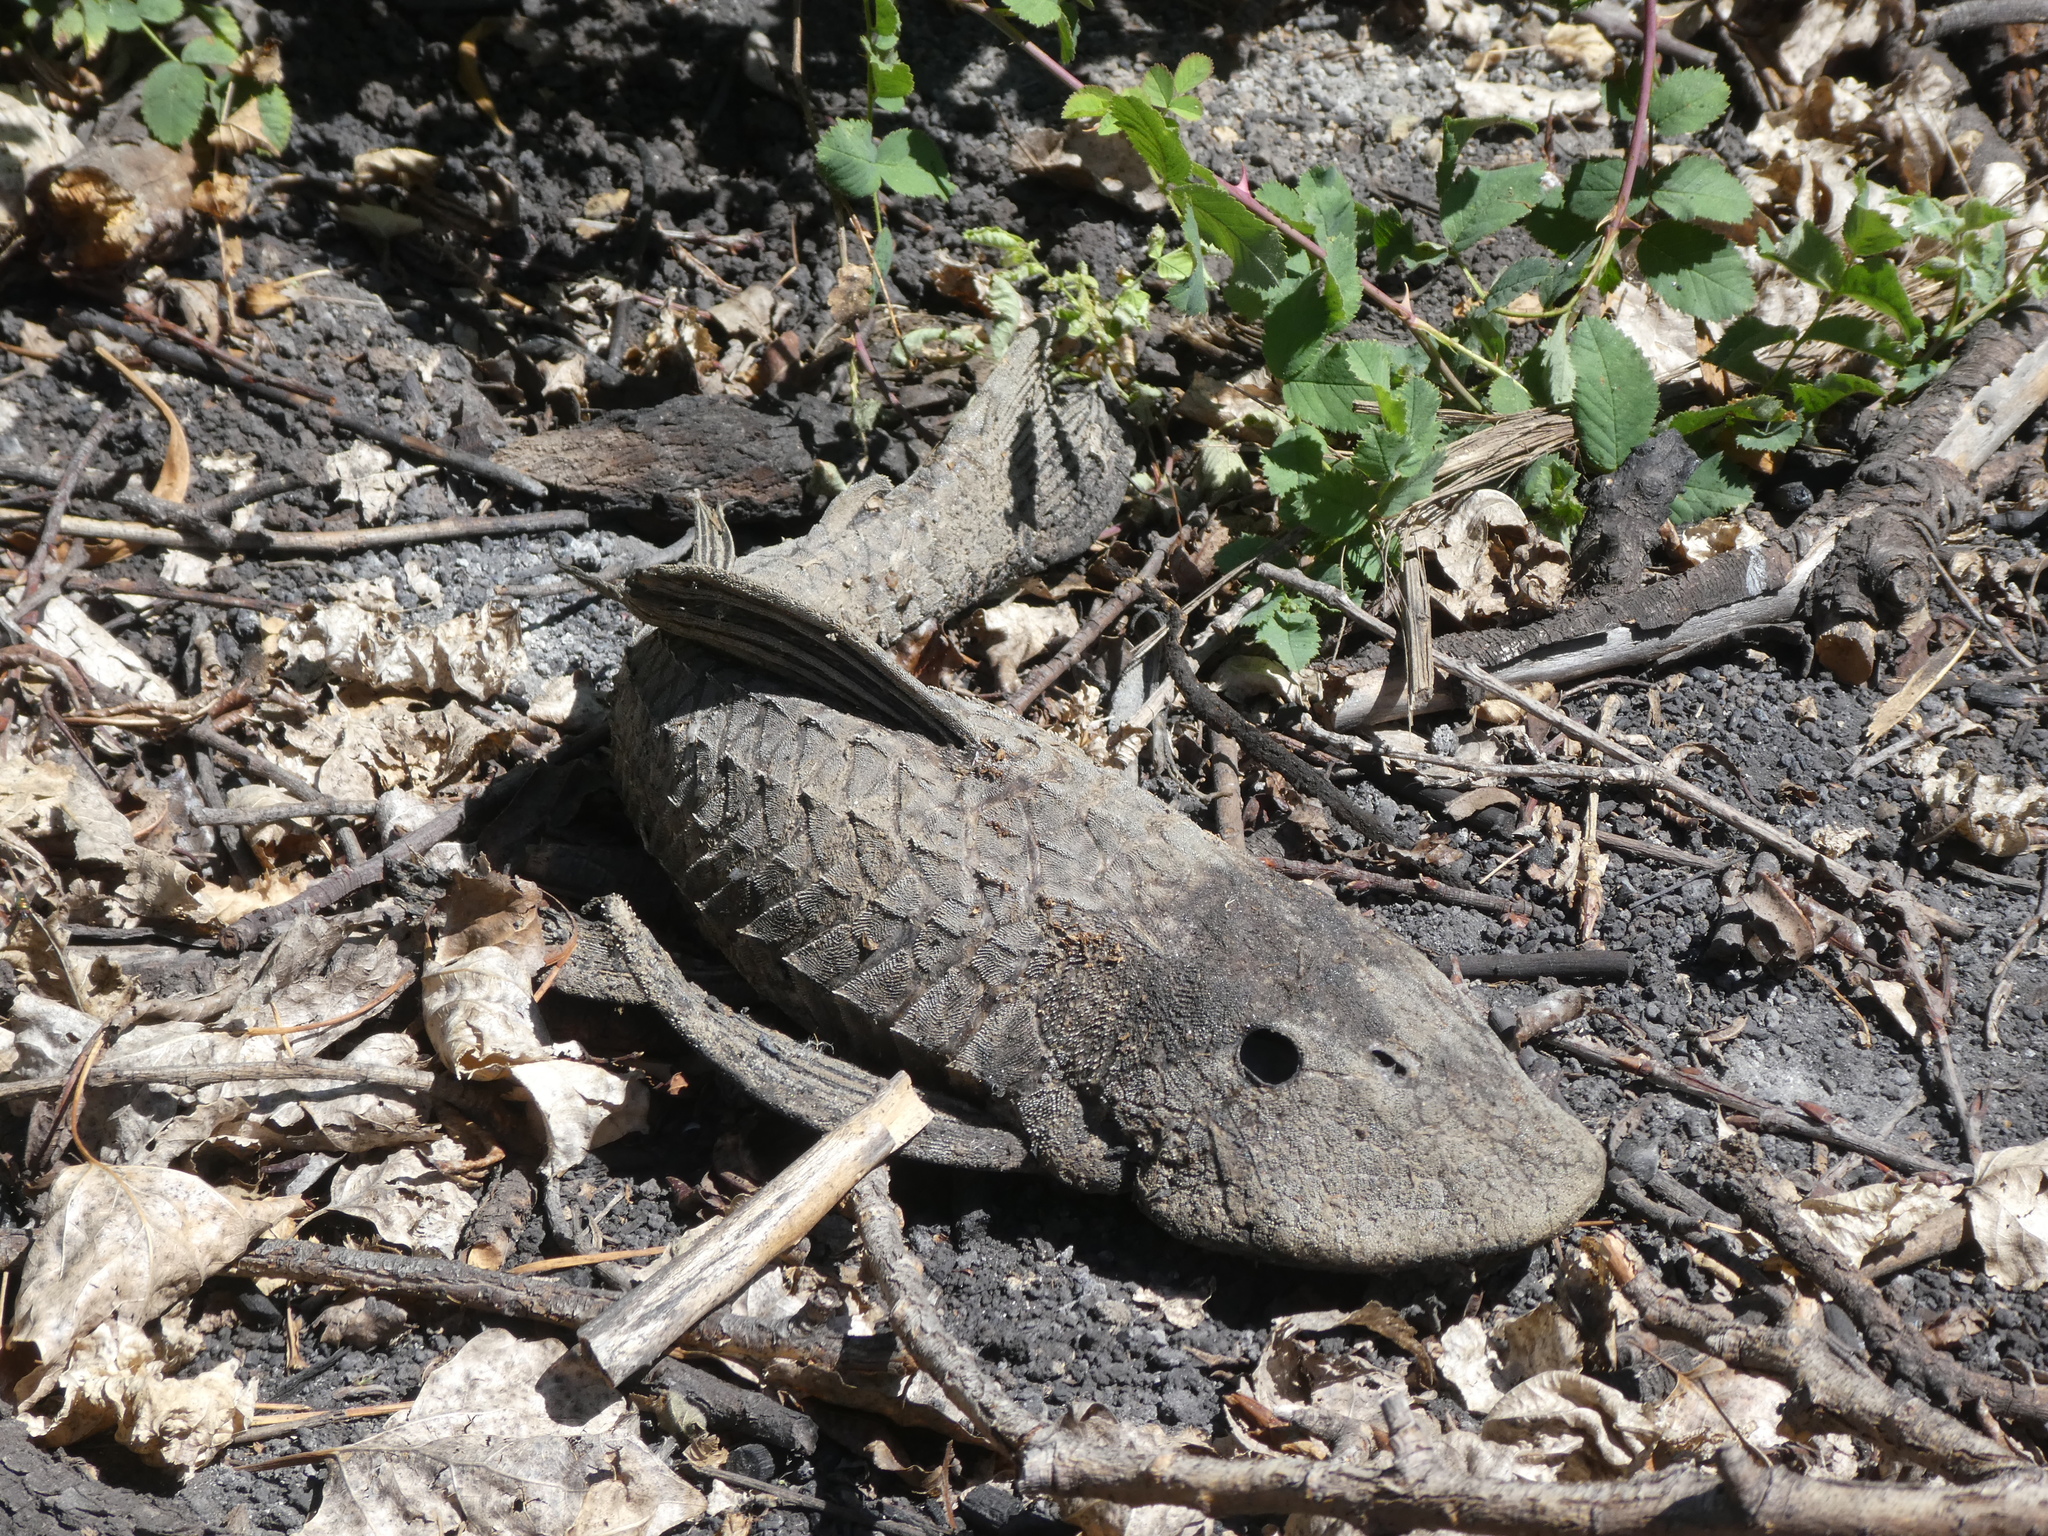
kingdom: Animalia
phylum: Chordata
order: Siluriformes
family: Loricariidae
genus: Pterygoplichthys
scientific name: Pterygoplichthys
